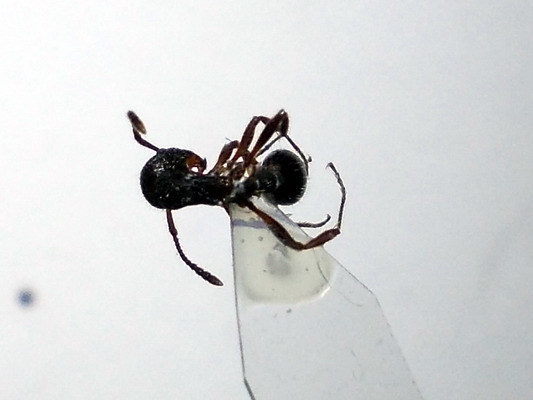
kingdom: Animalia
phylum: Arthropoda
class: Insecta
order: Hymenoptera
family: Formicidae
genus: Myrmica
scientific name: Myrmica bergi
